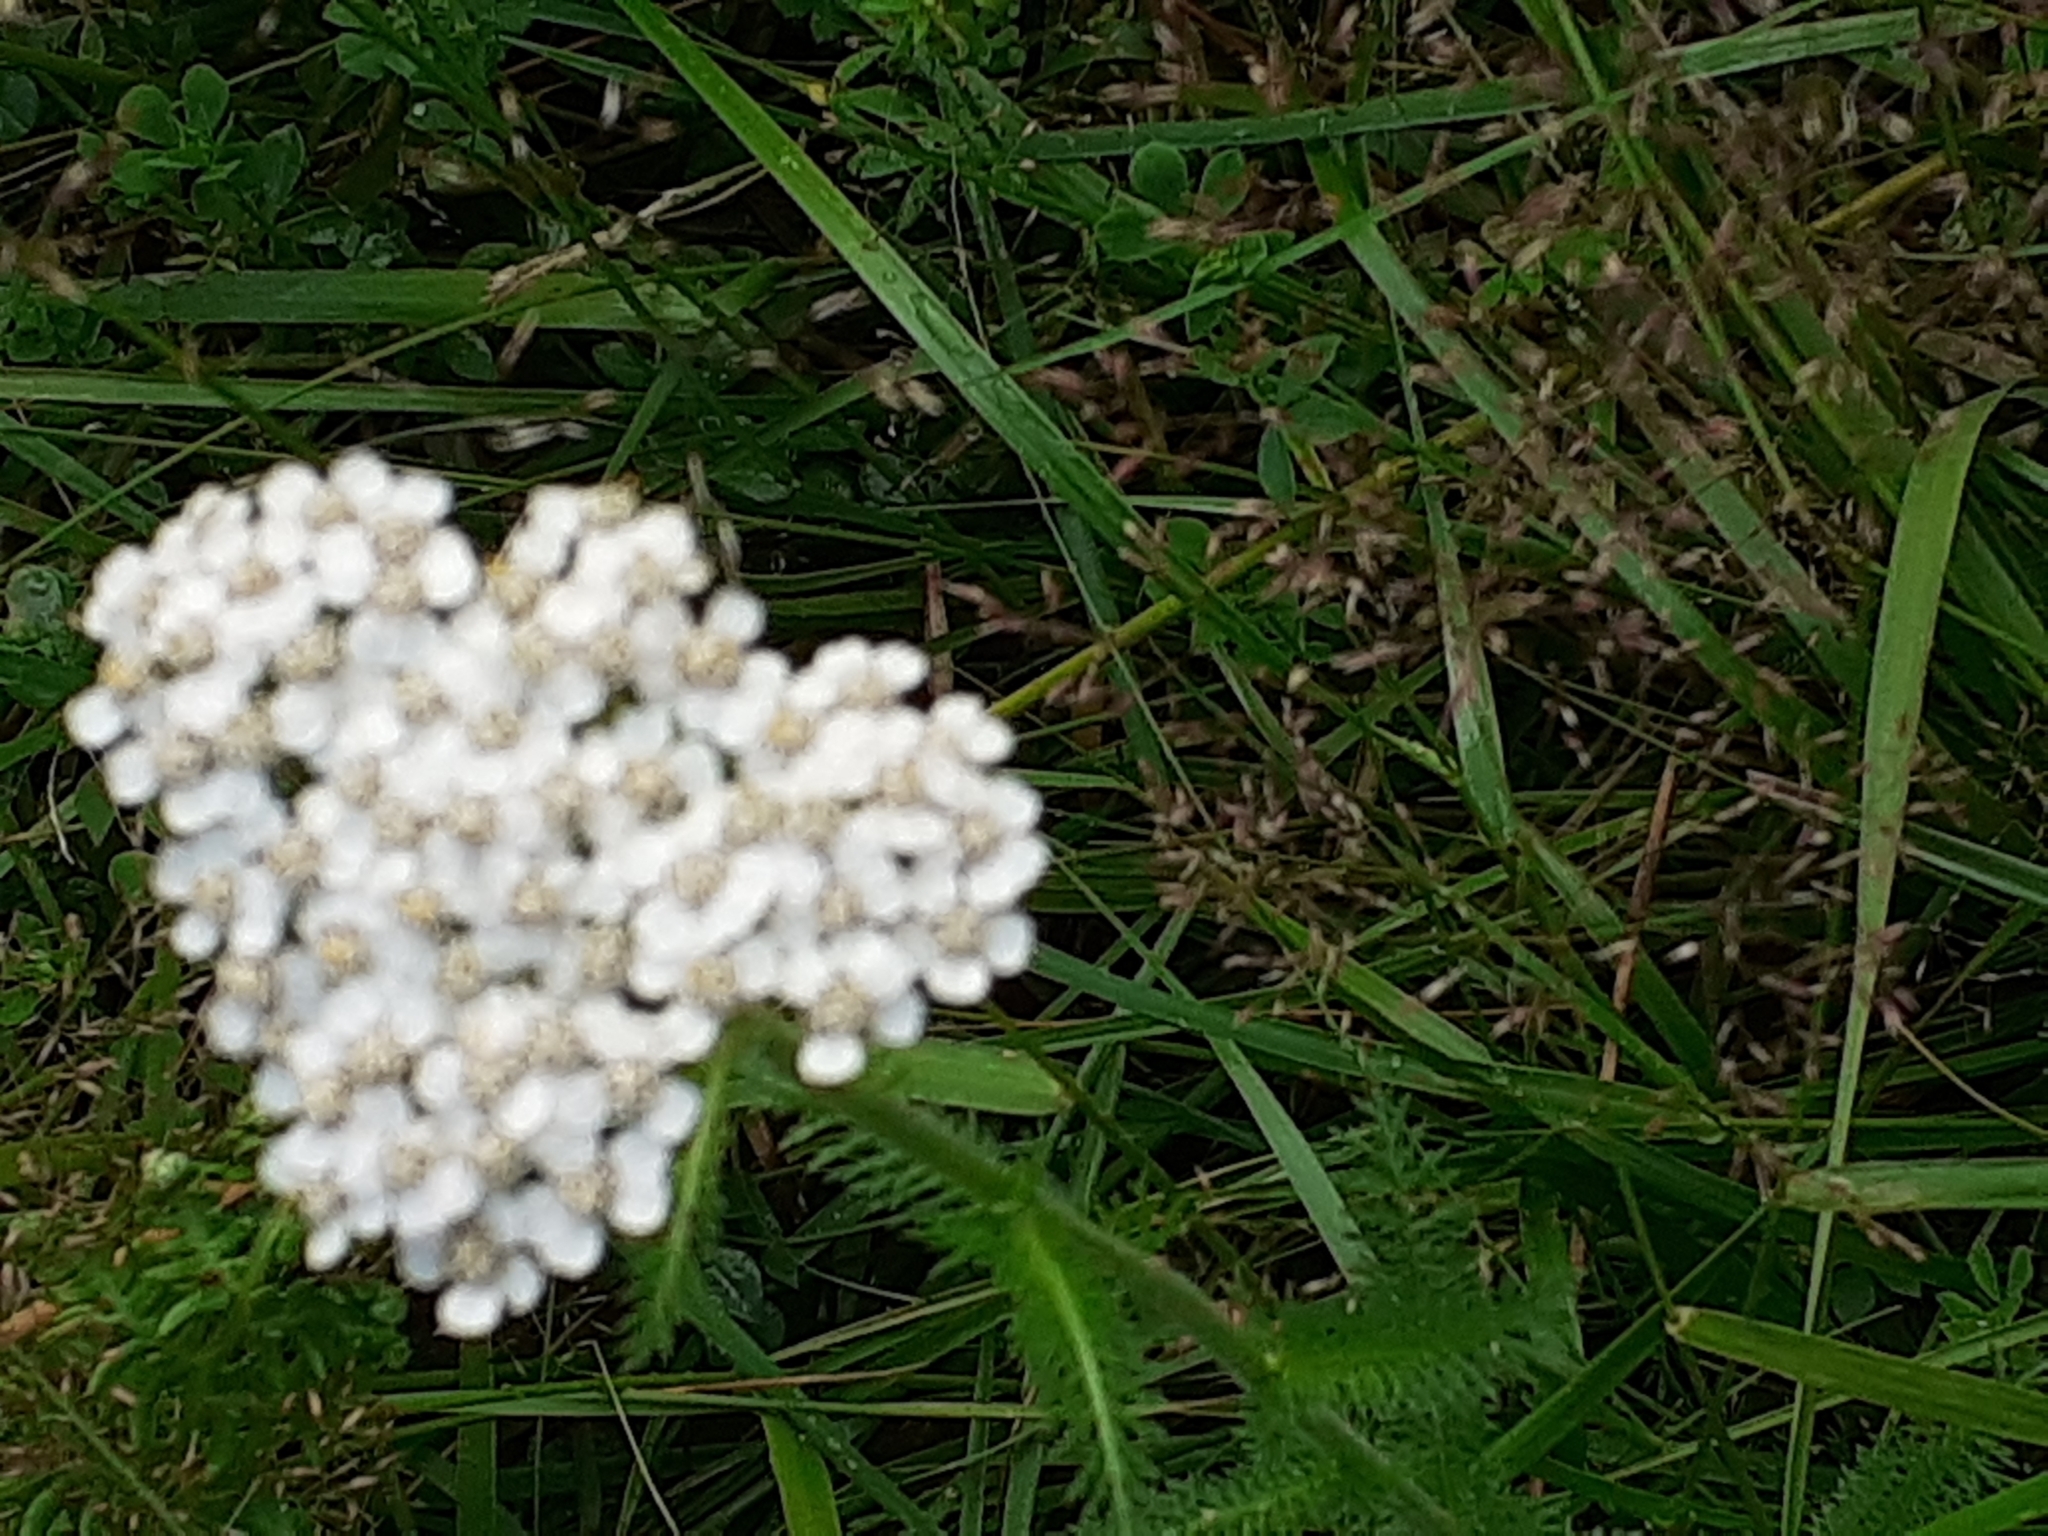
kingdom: Plantae
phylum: Tracheophyta
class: Magnoliopsida
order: Asterales
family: Asteraceae
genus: Achillea
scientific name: Achillea millefolium
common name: Yarrow
